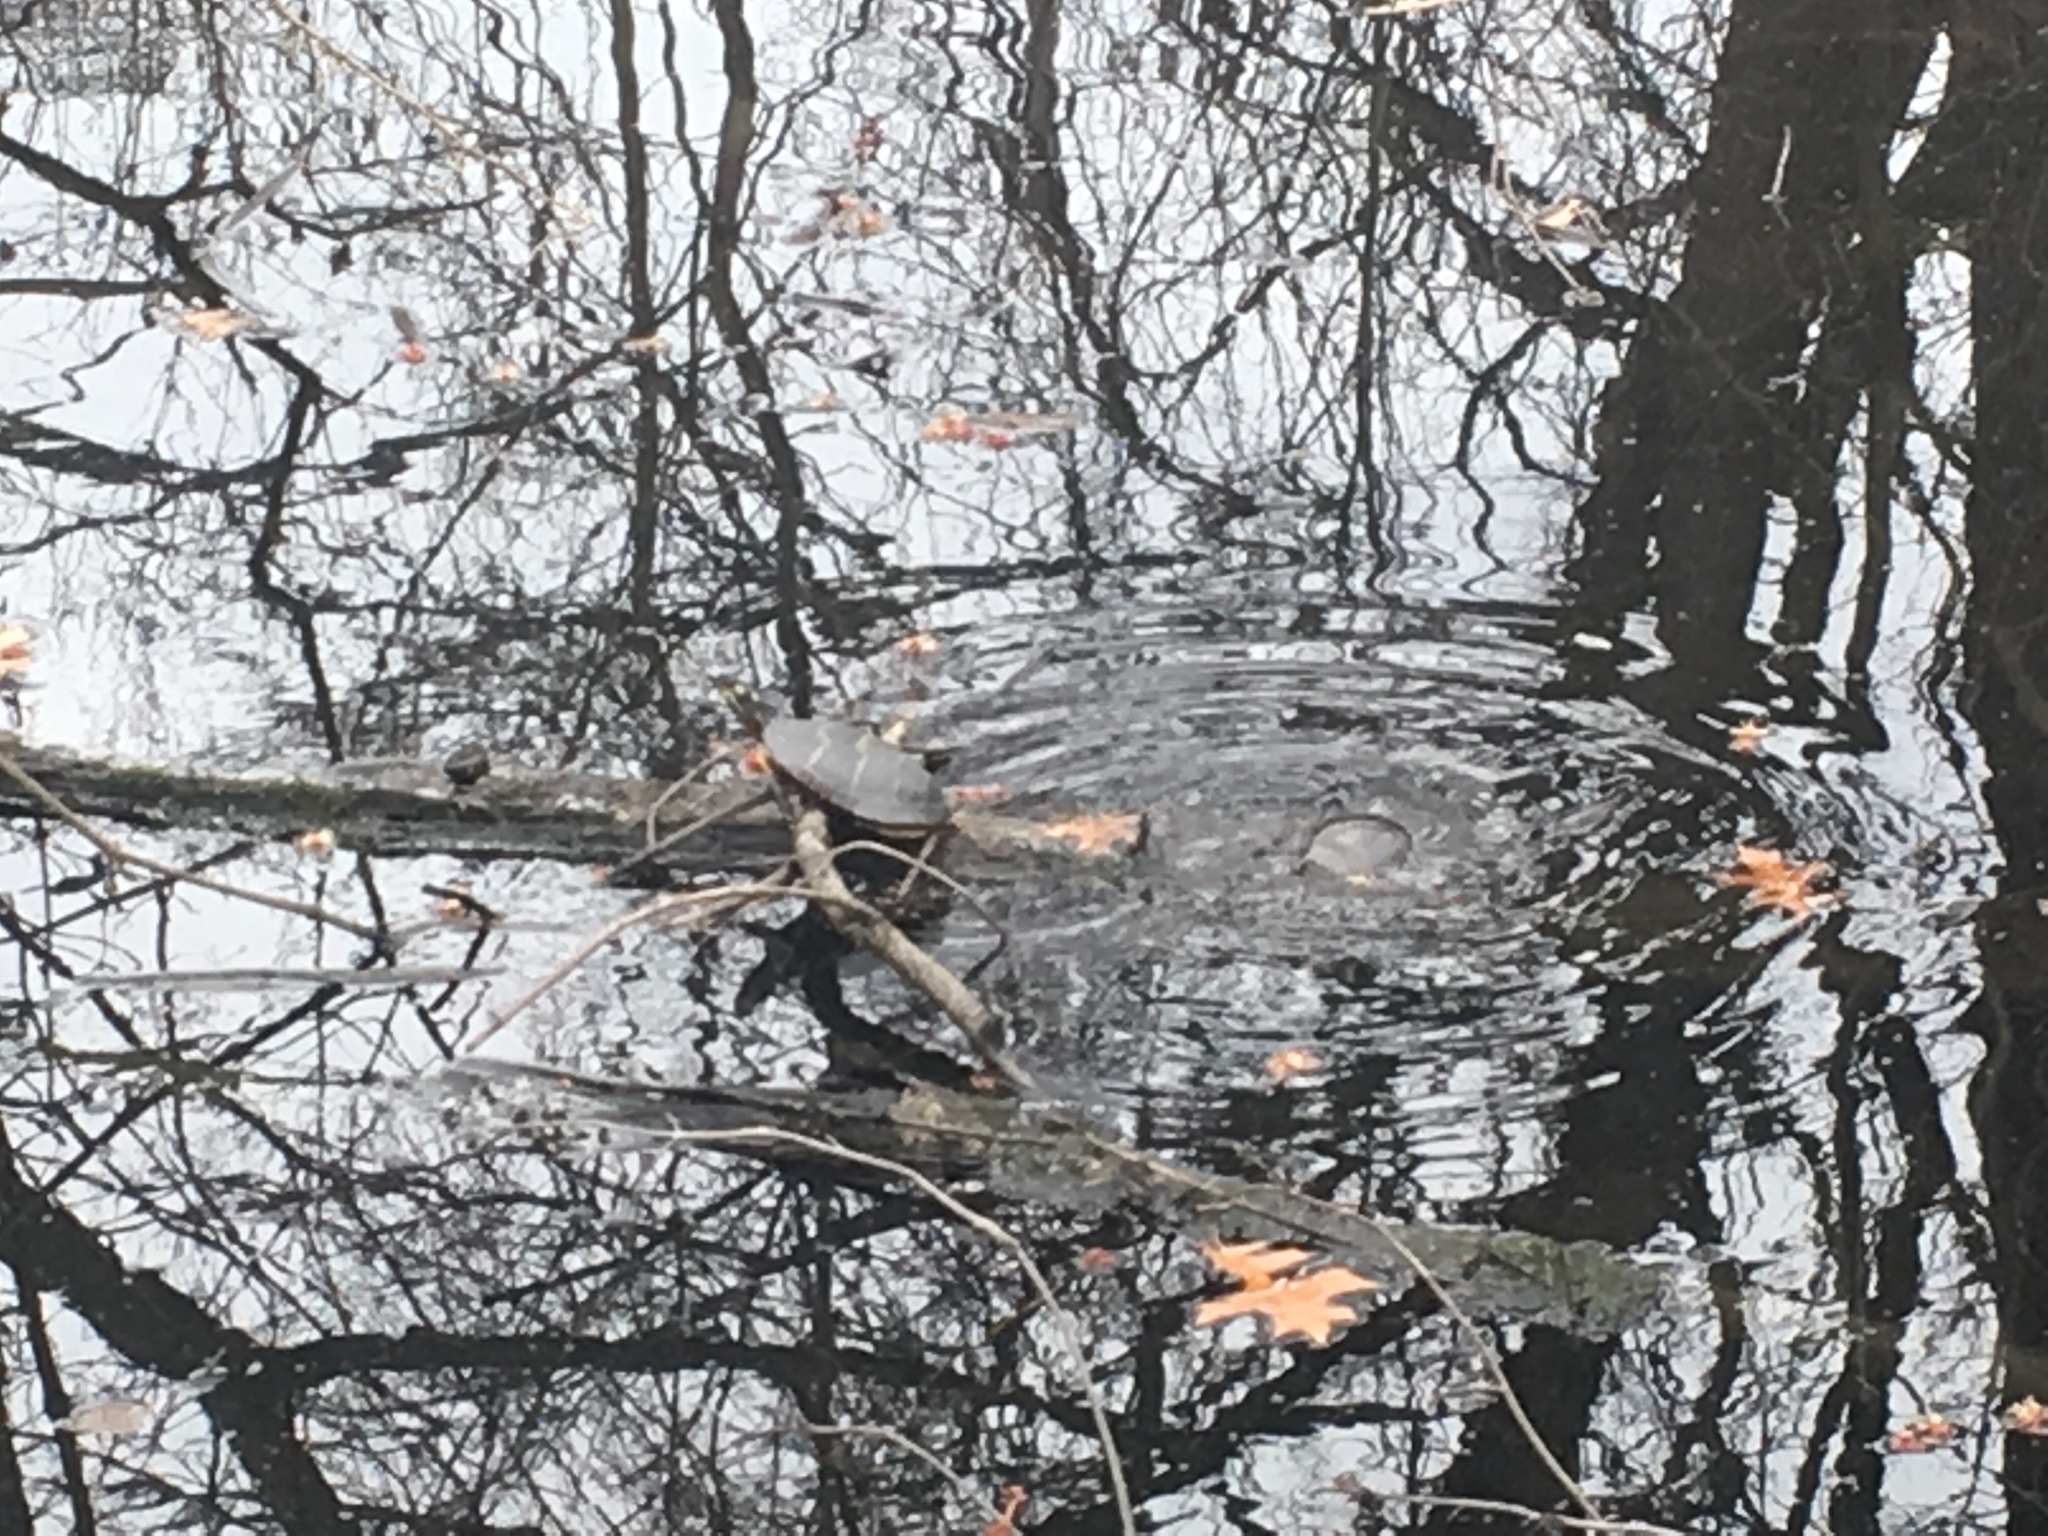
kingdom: Animalia
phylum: Chordata
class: Testudines
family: Emydidae
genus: Chrysemys
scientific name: Chrysemys picta
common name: Painted turtle
